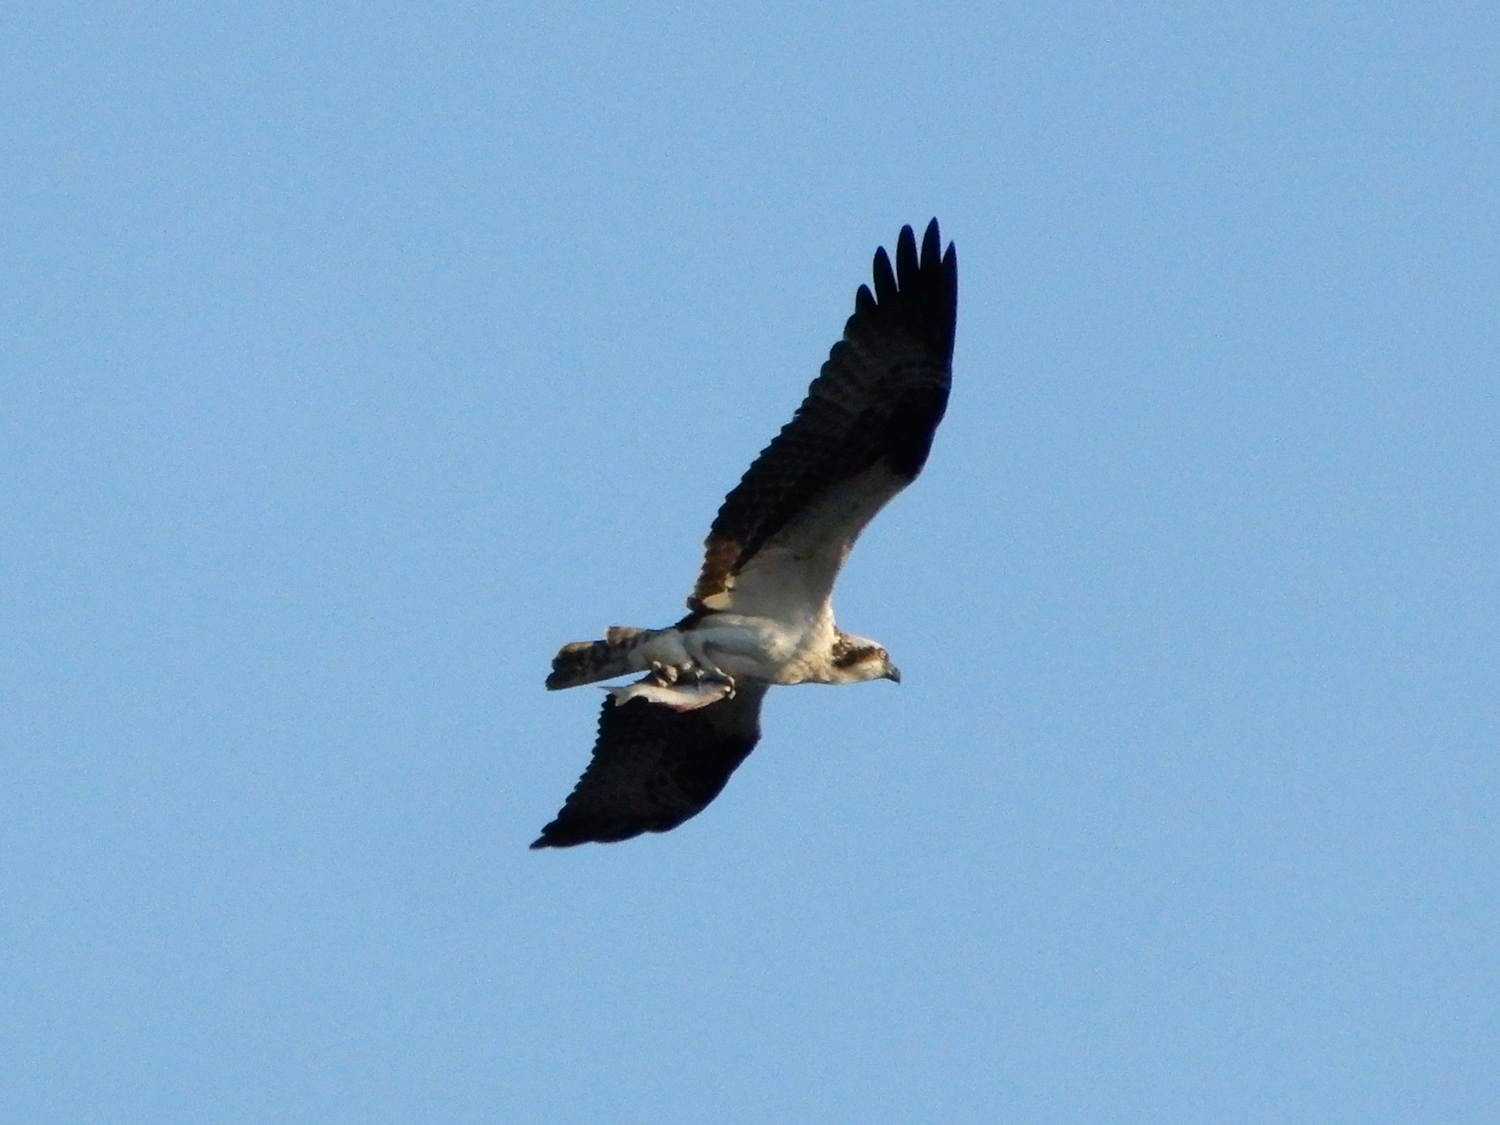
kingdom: Animalia
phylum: Chordata
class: Aves
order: Accipitriformes
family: Pandionidae
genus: Pandion
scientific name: Pandion haliaetus
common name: Osprey
